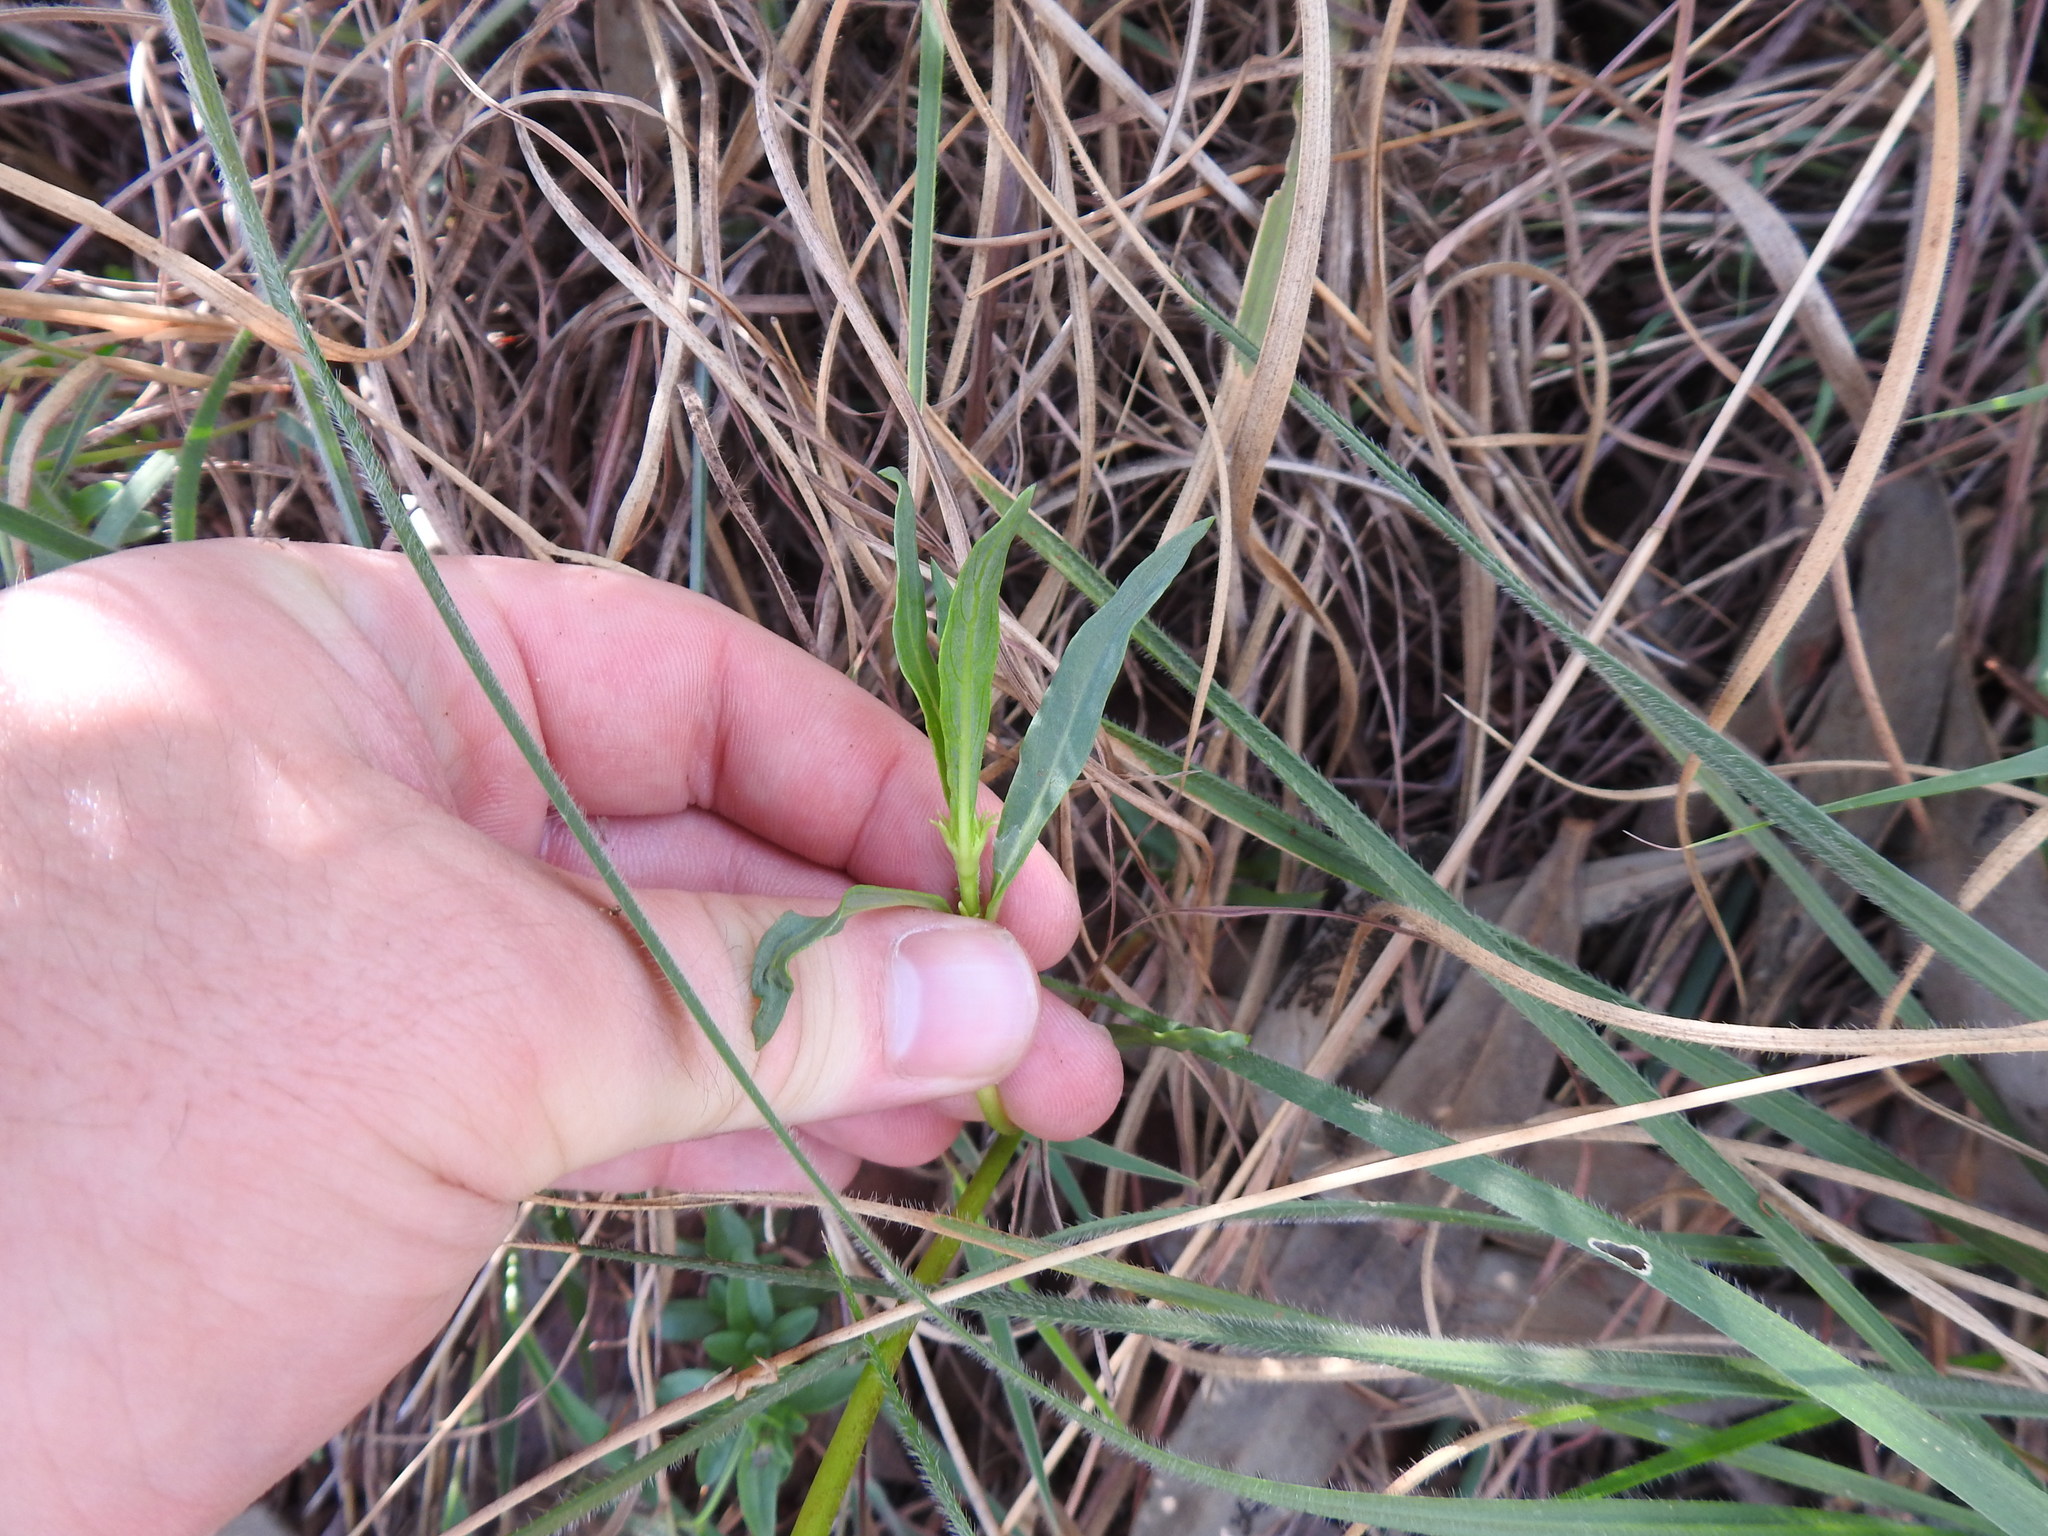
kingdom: Plantae
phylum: Tracheophyta
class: Magnoliopsida
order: Gentianales
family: Rubiaceae
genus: Pentanisia
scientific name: Pentanisia angustifolia
